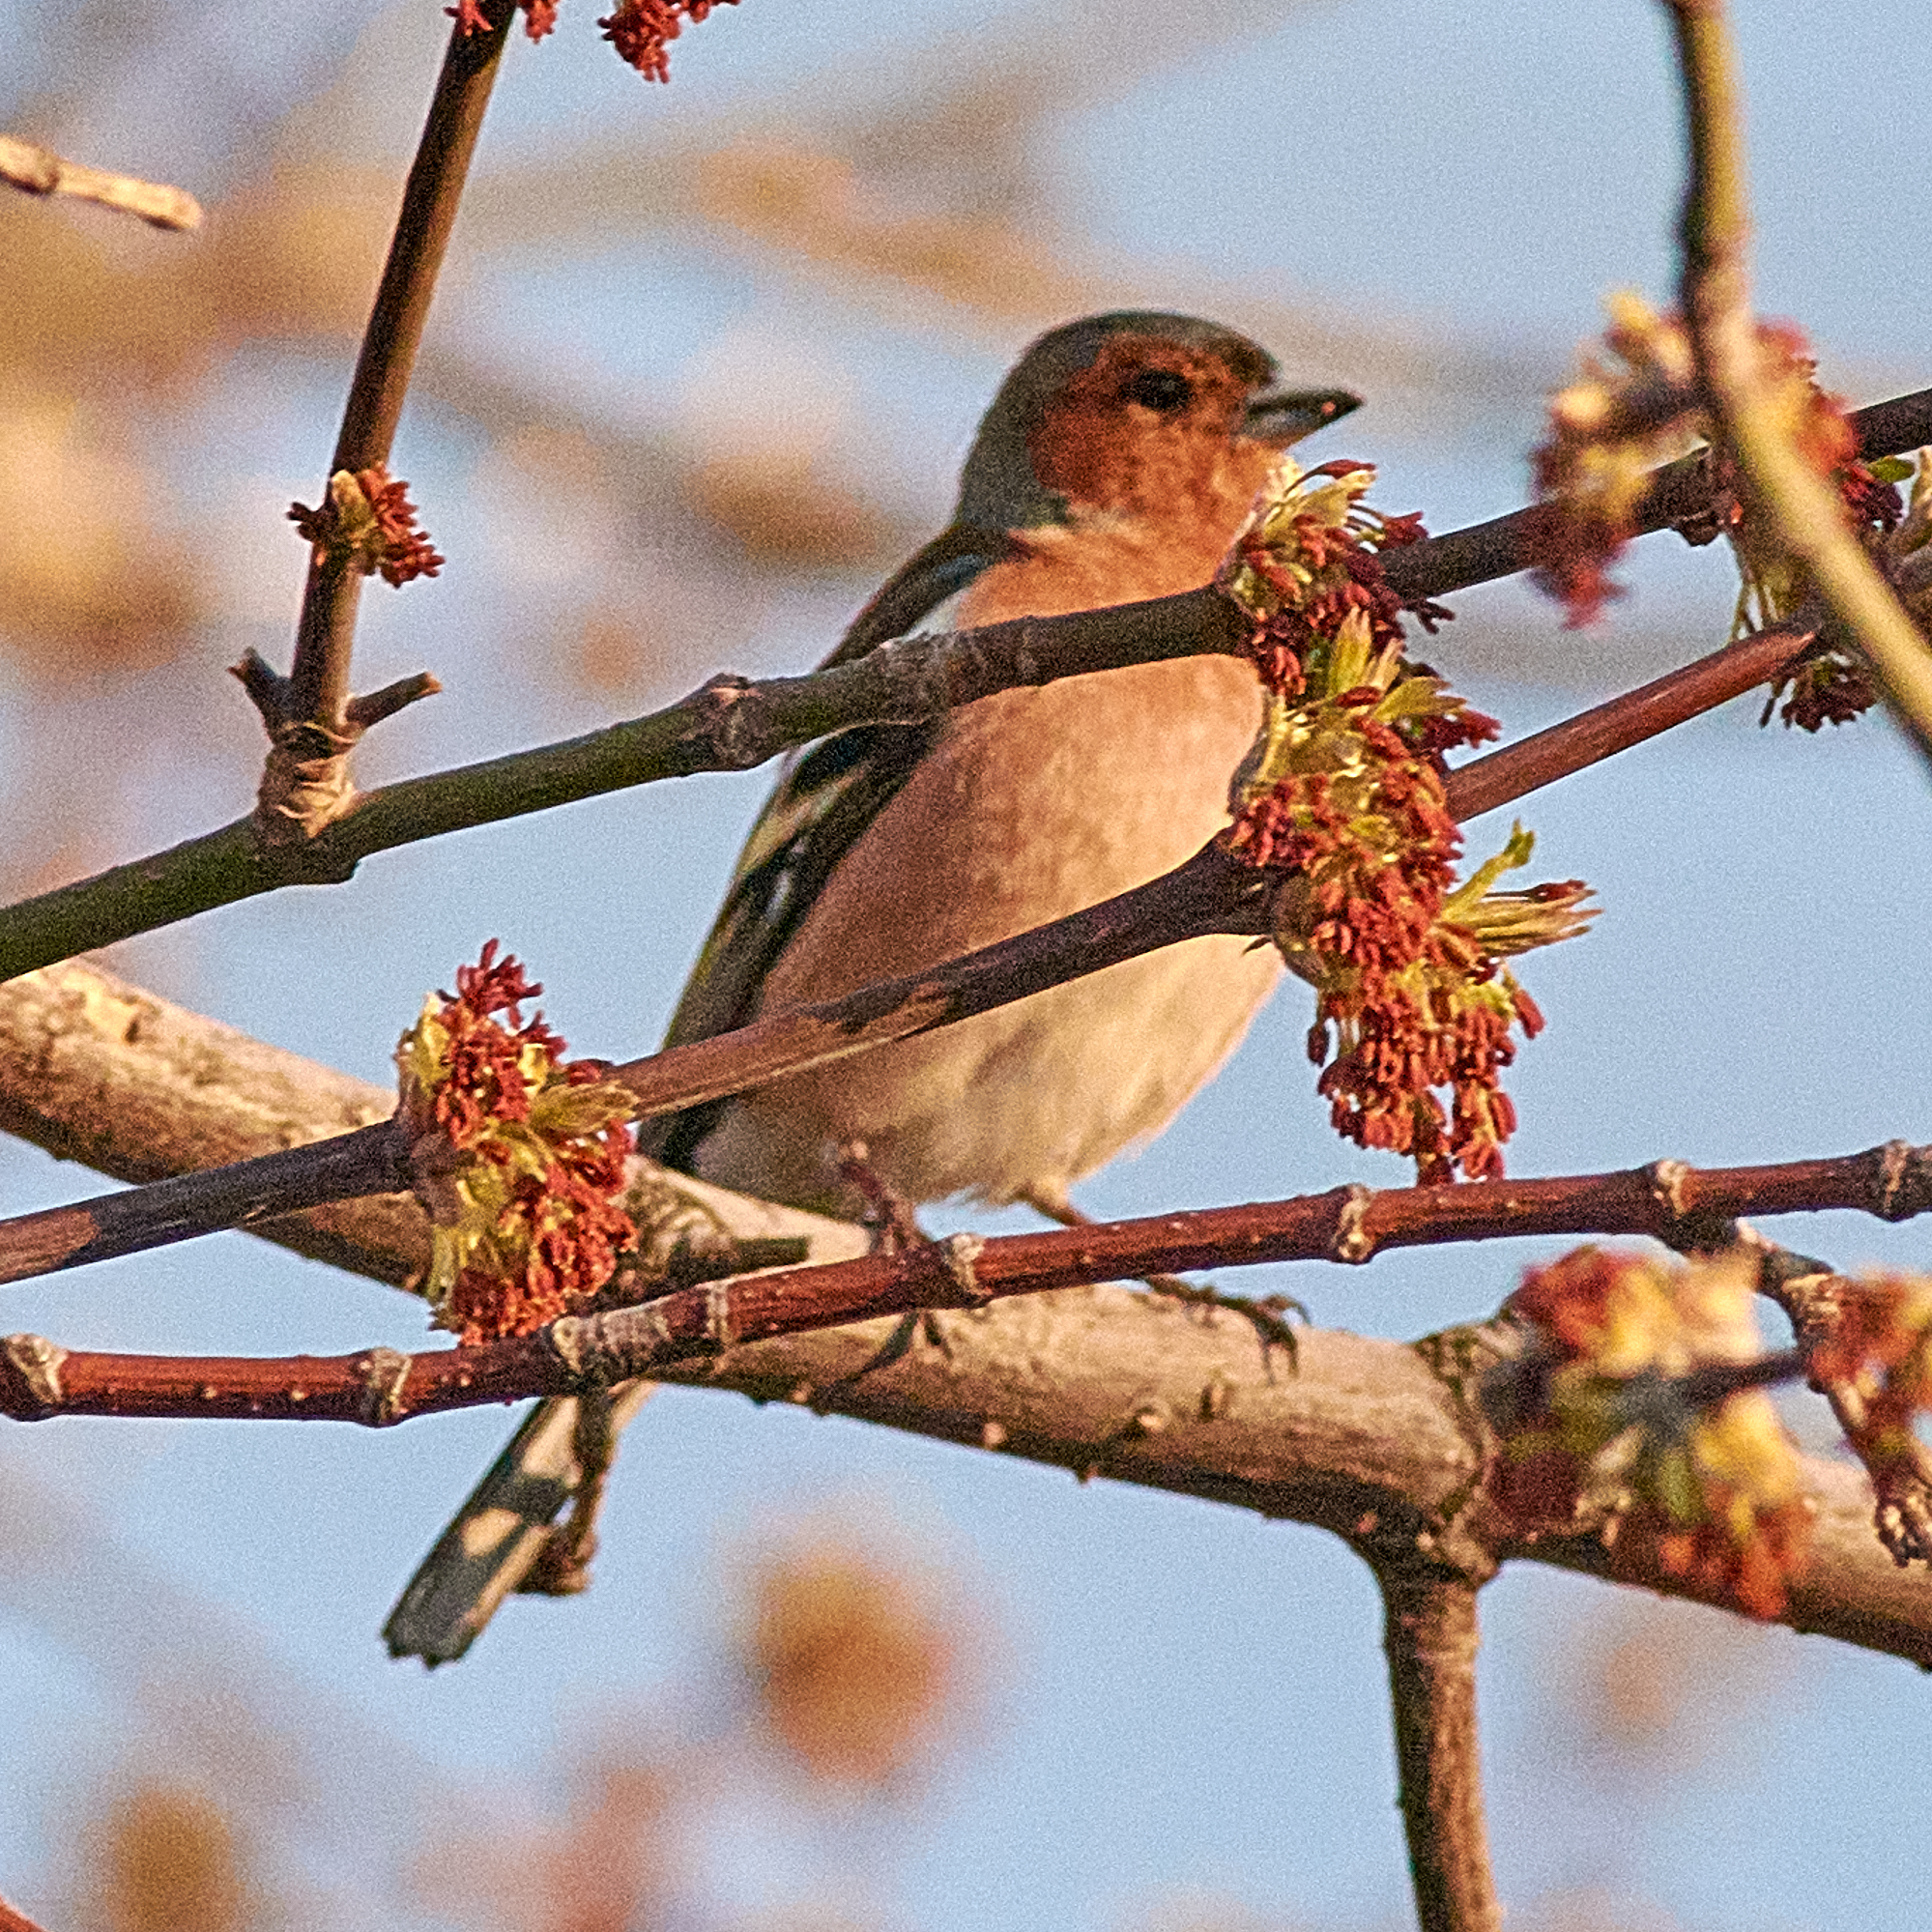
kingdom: Animalia
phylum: Chordata
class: Aves
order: Passeriformes
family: Fringillidae
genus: Fringilla
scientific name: Fringilla coelebs
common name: Common chaffinch
